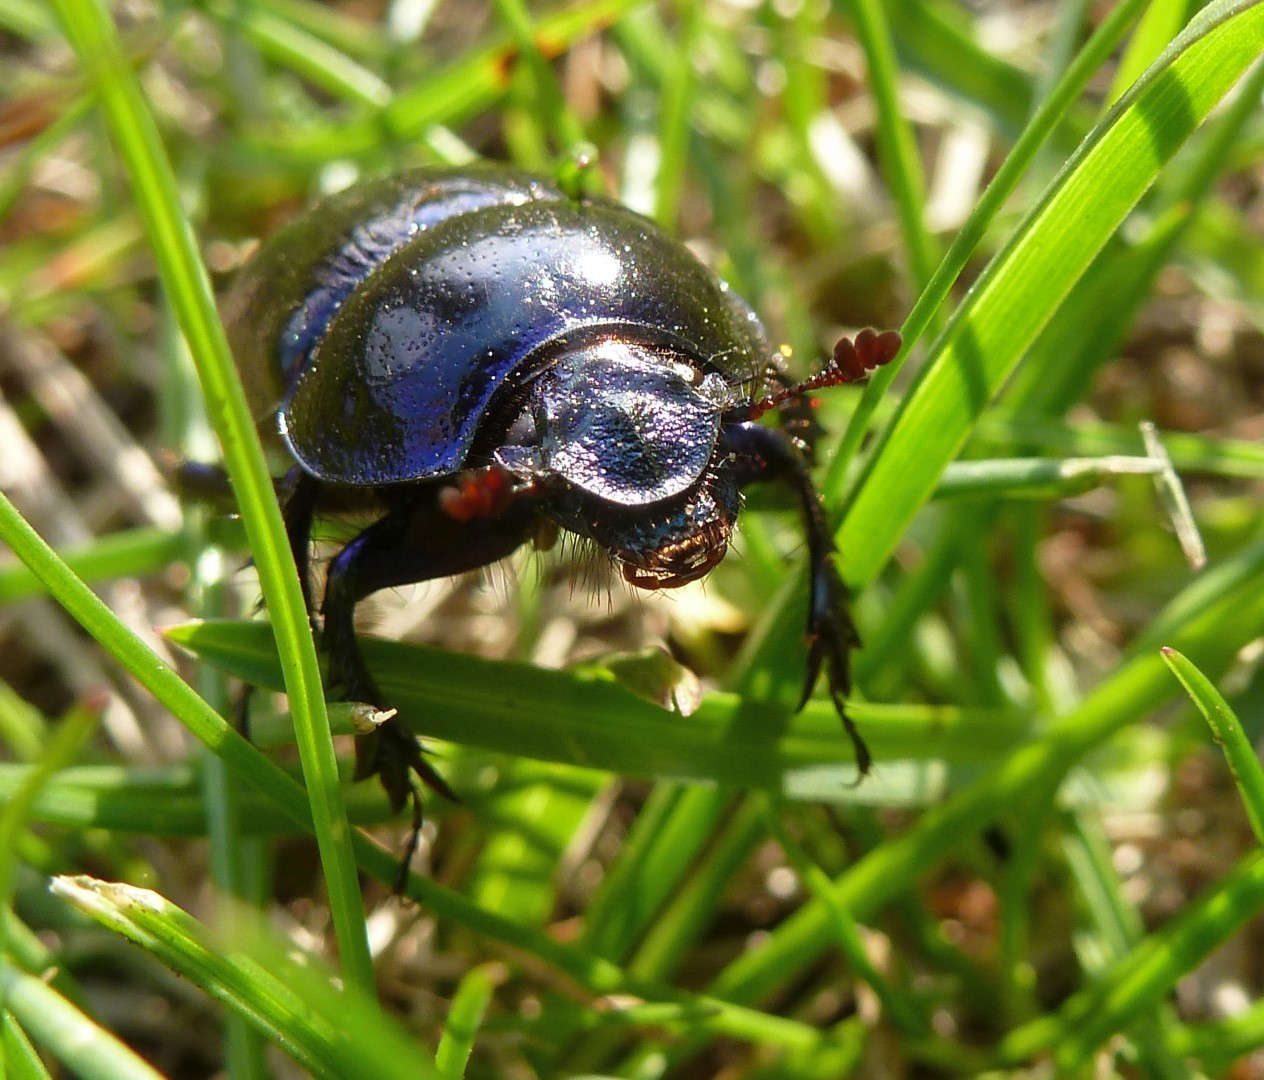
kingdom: Animalia
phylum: Arthropoda
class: Insecta
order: Coleoptera
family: Geotrupidae
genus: Anoplotrupes
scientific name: Anoplotrupes stercorosus
